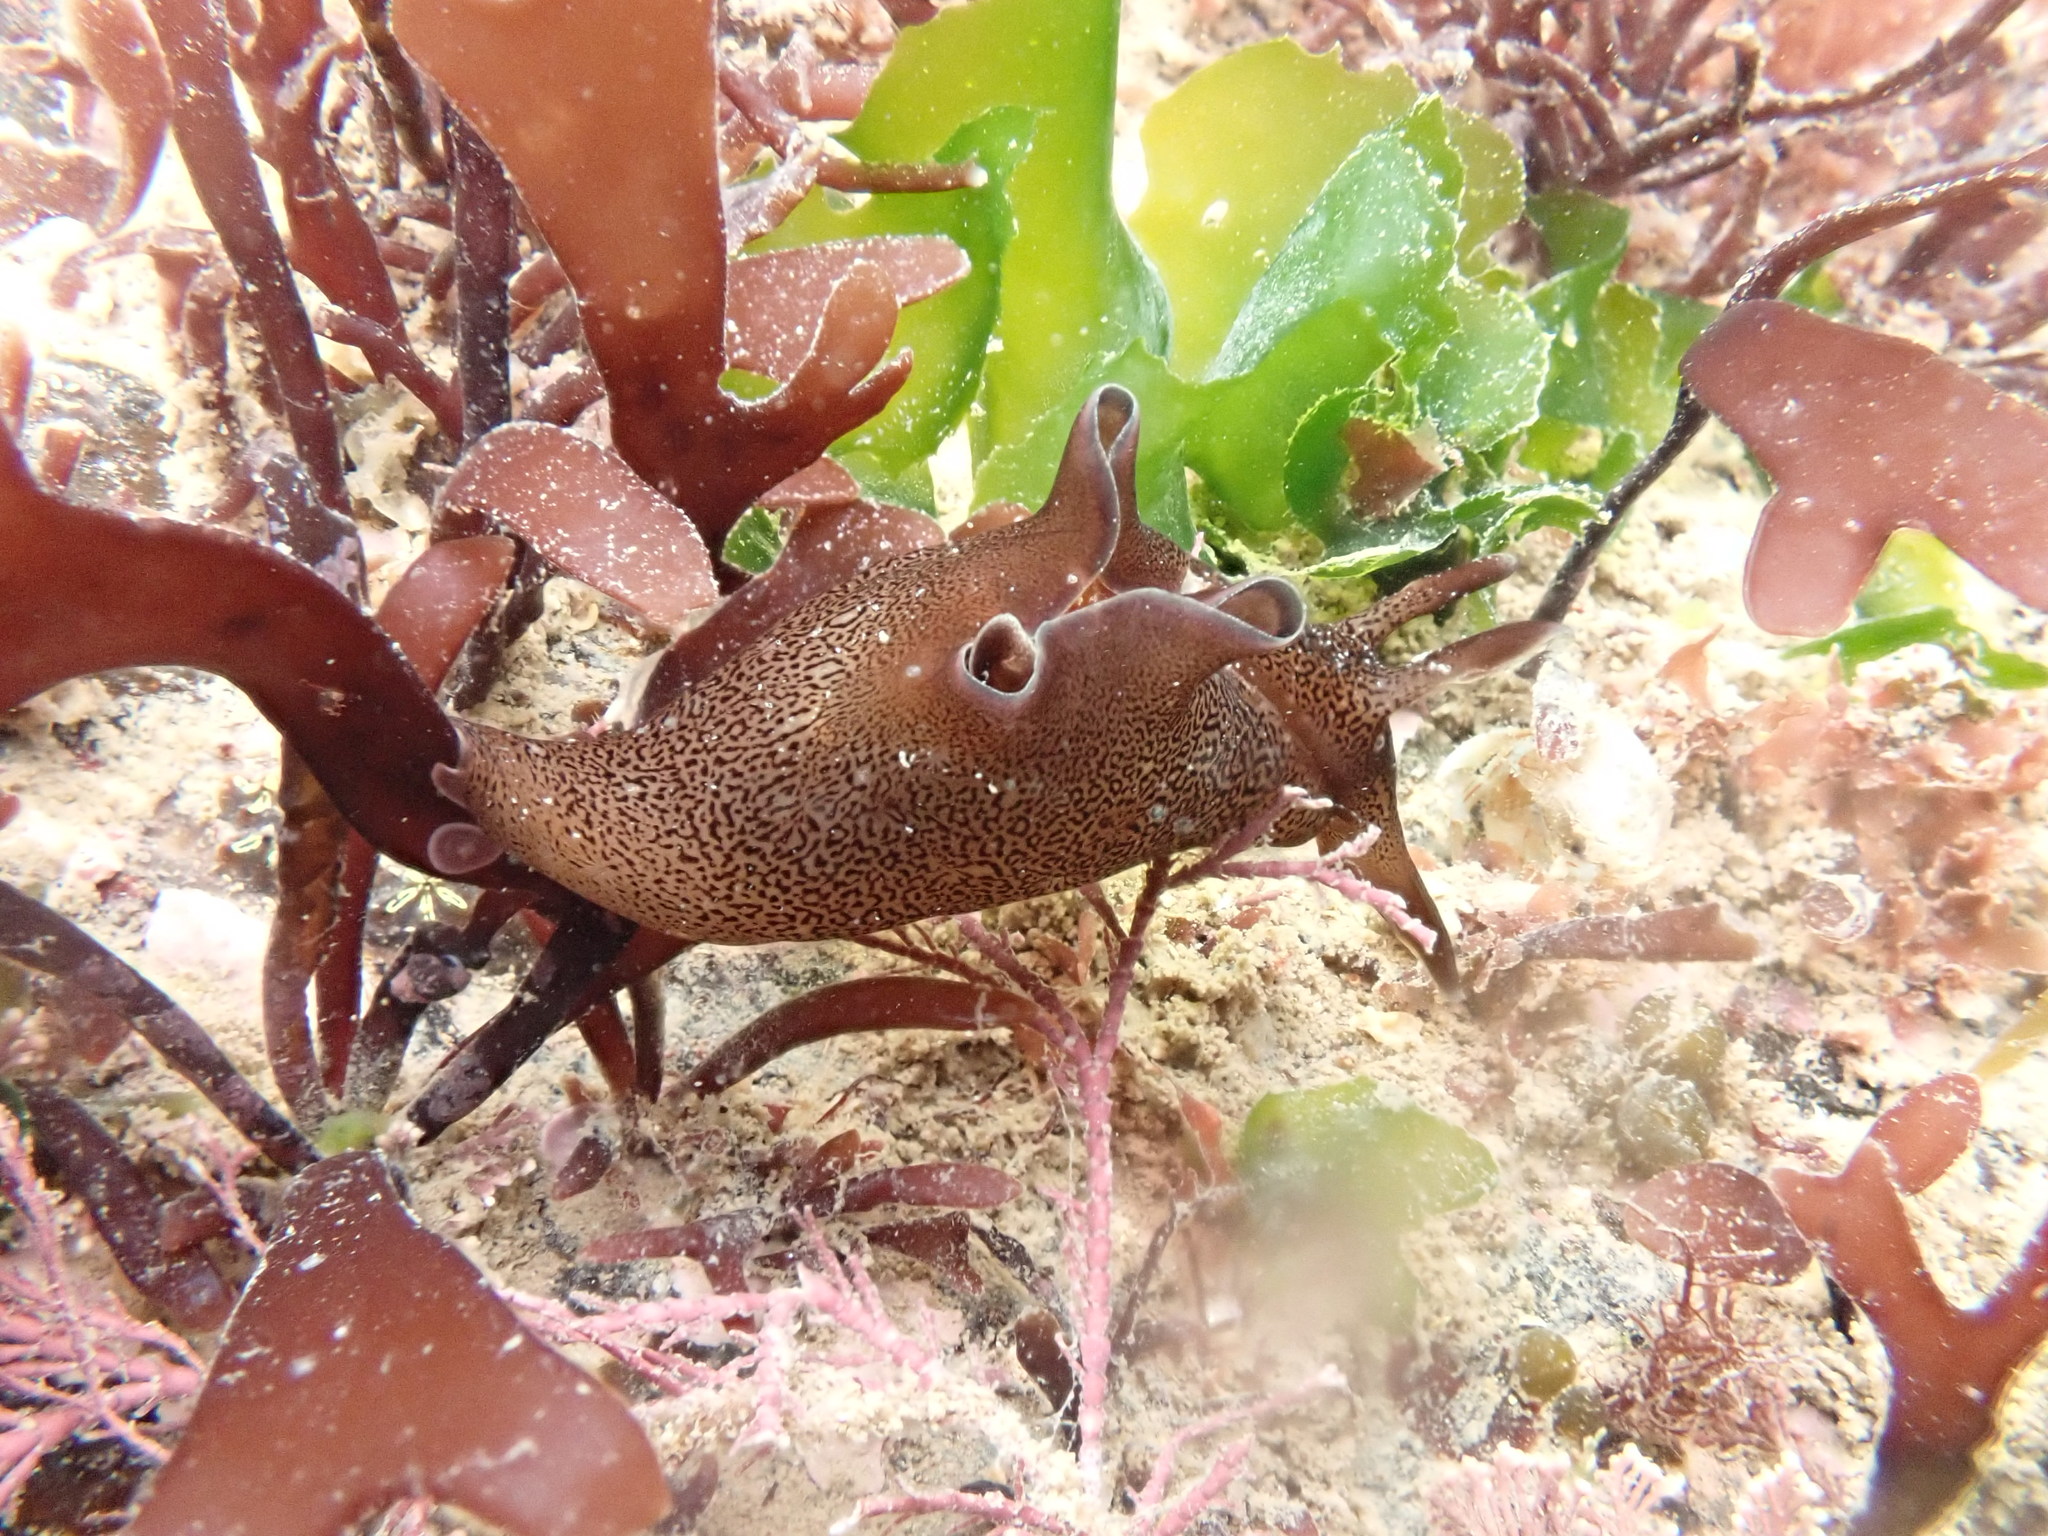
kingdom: Animalia
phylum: Mollusca
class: Gastropoda
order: Aplysiida
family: Aplysiidae
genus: Aplysia
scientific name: Aplysia punctata
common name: Common sea hare
